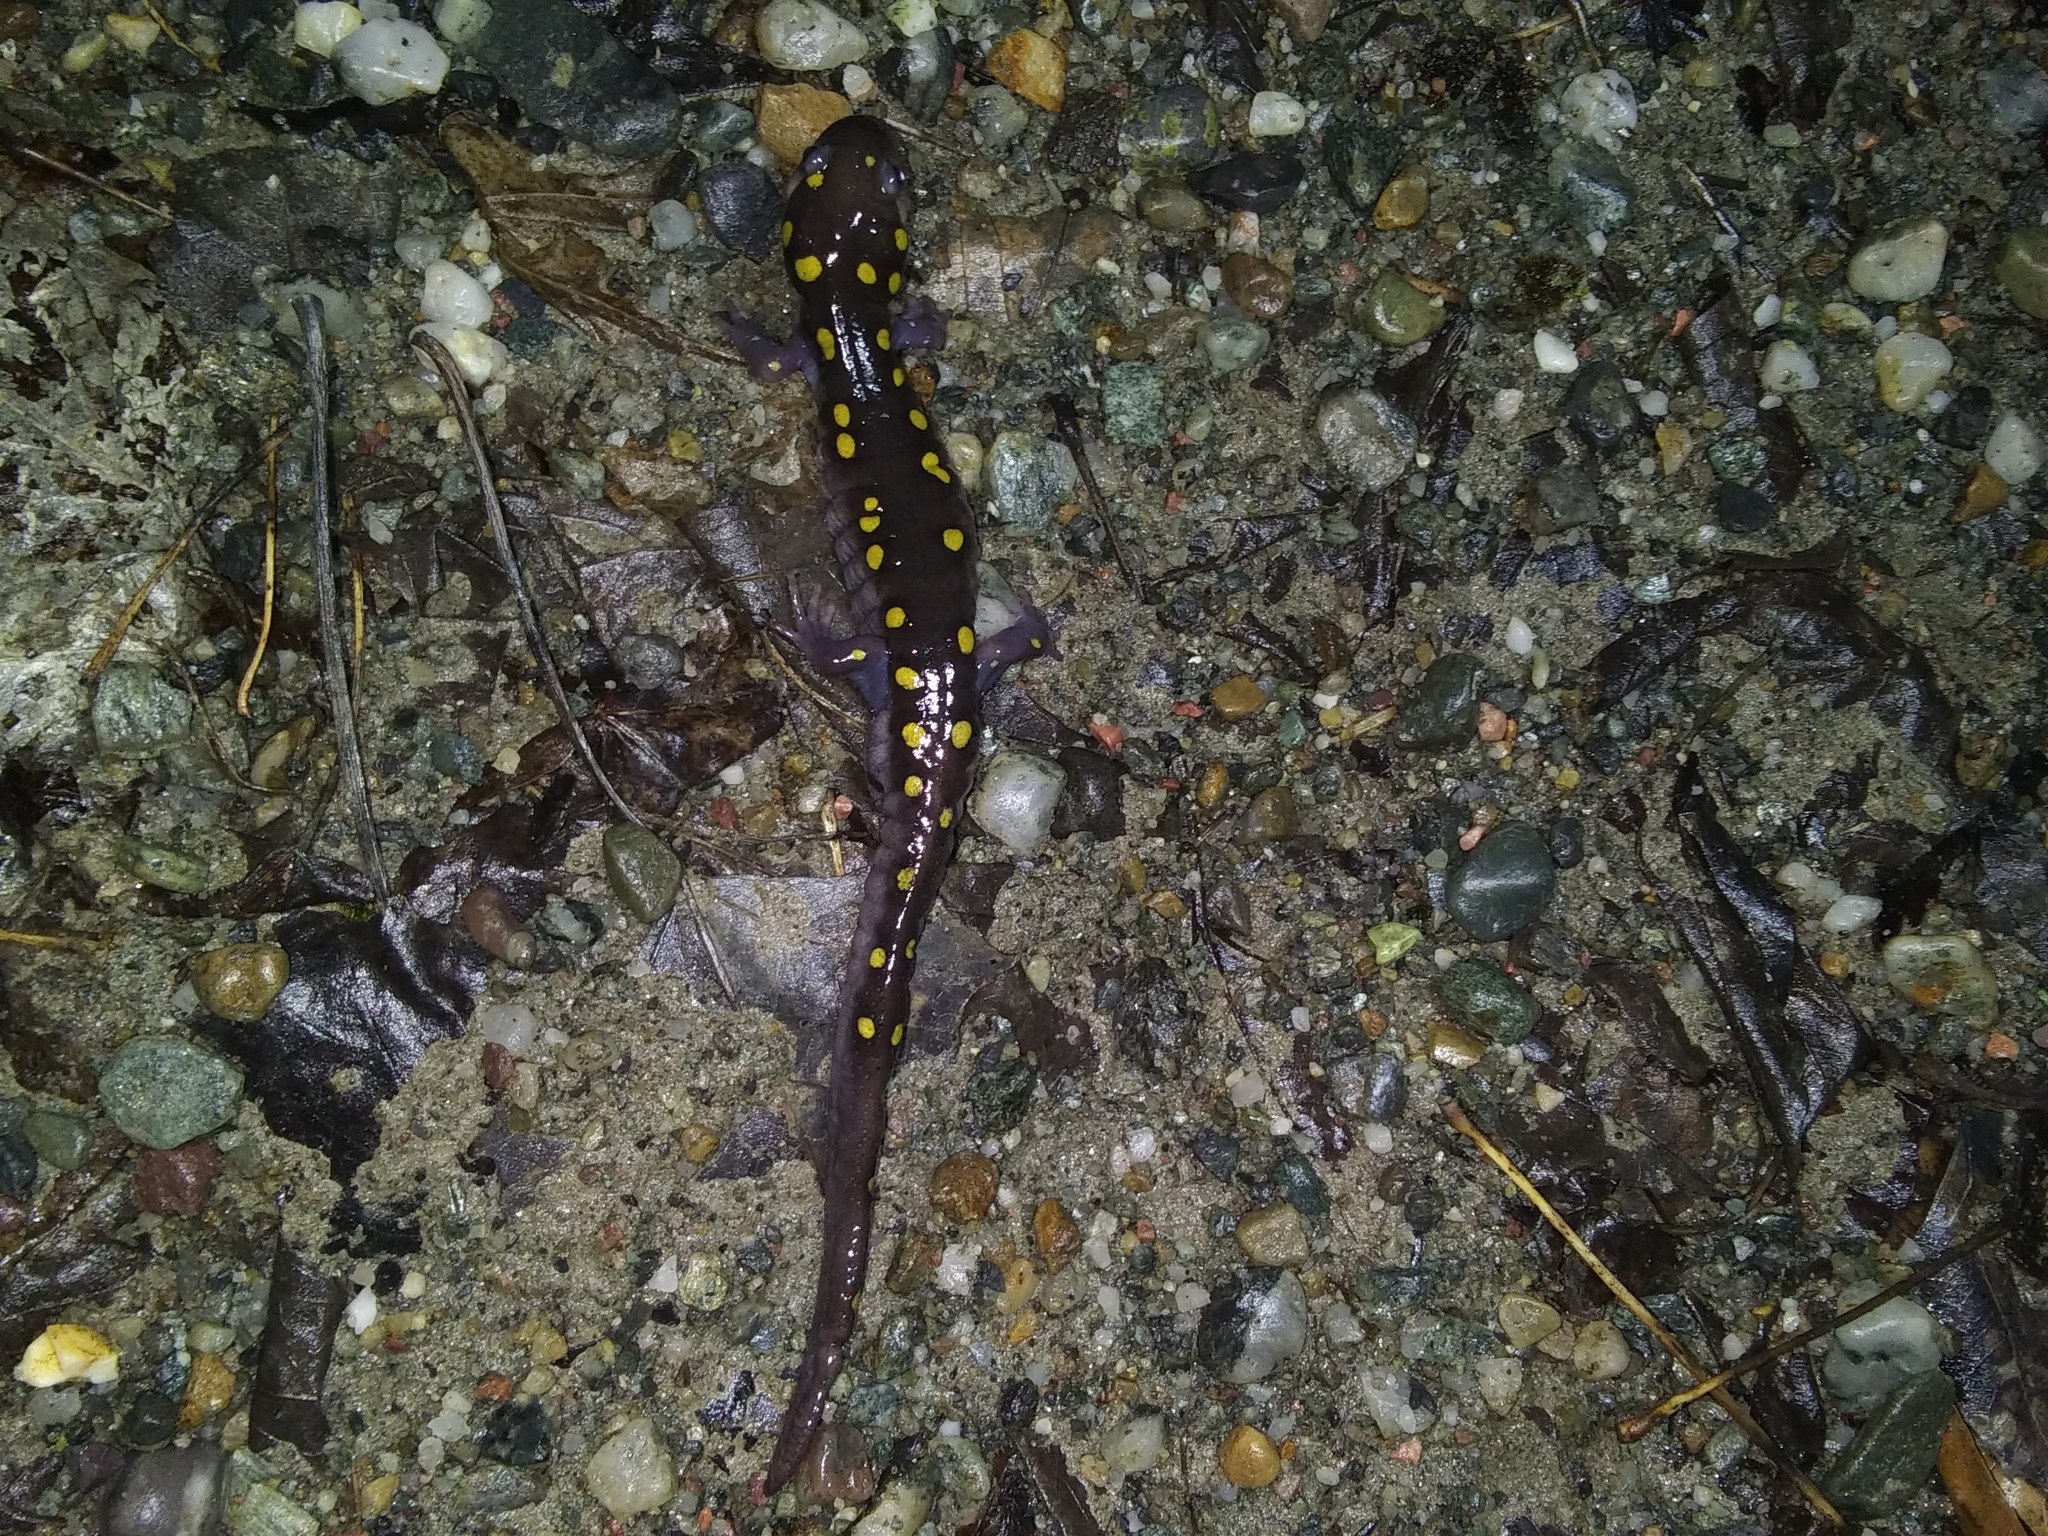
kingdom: Animalia
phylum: Chordata
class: Amphibia
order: Caudata
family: Ambystomatidae
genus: Ambystoma
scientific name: Ambystoma maculatum
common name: Spotted salamander
